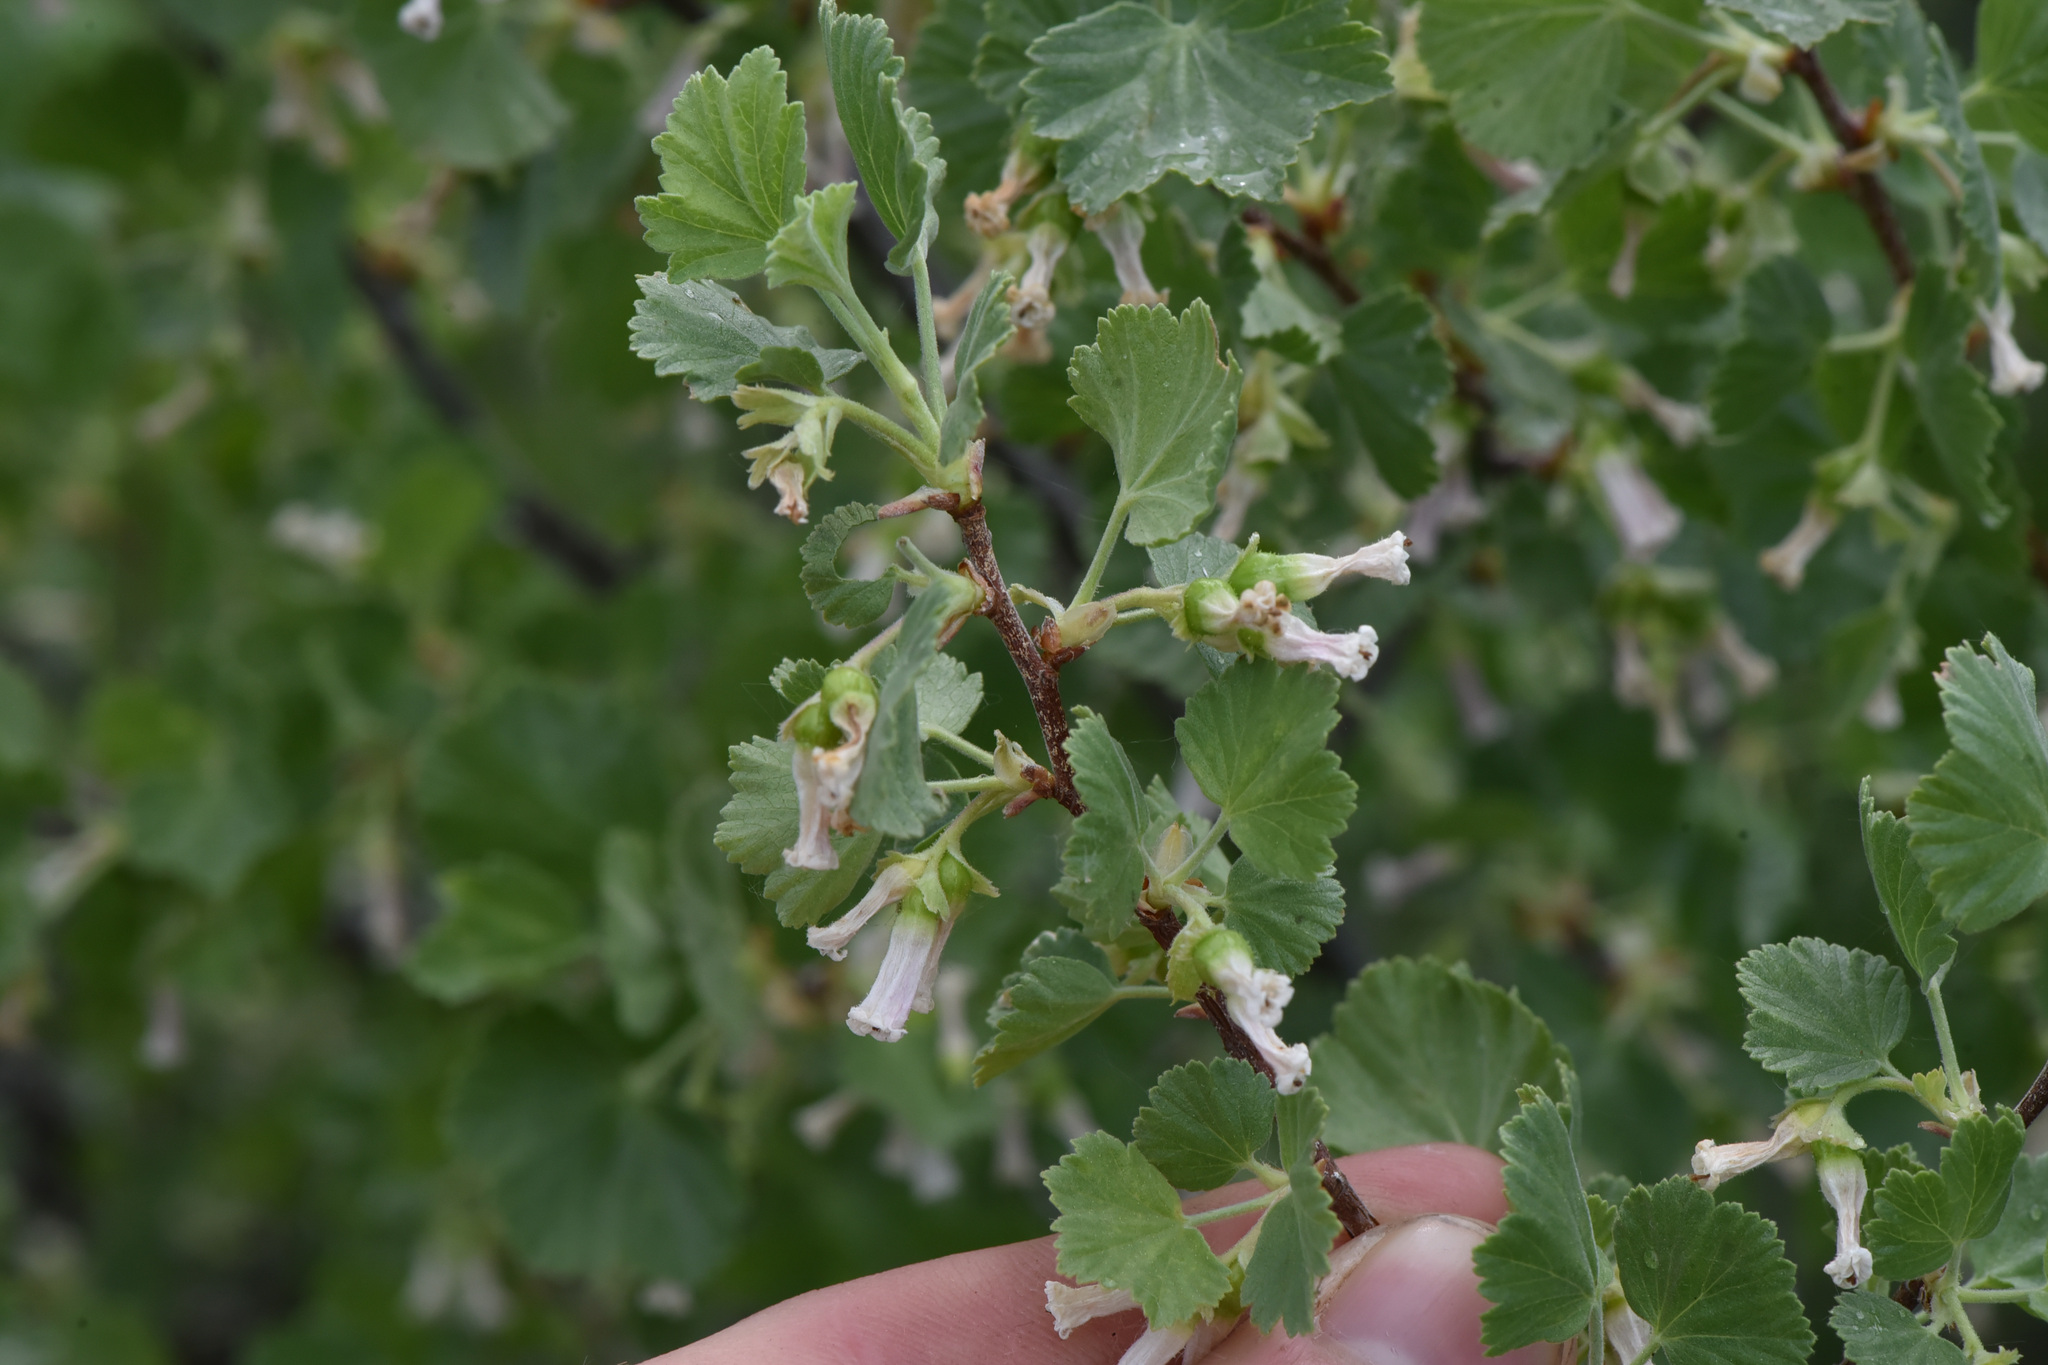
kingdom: Plantae
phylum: Tracheophyta
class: Magnoliopsida
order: Saxifragales
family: Grossulariaceae
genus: Ribes
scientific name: Ribes cereum
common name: Wax currant
